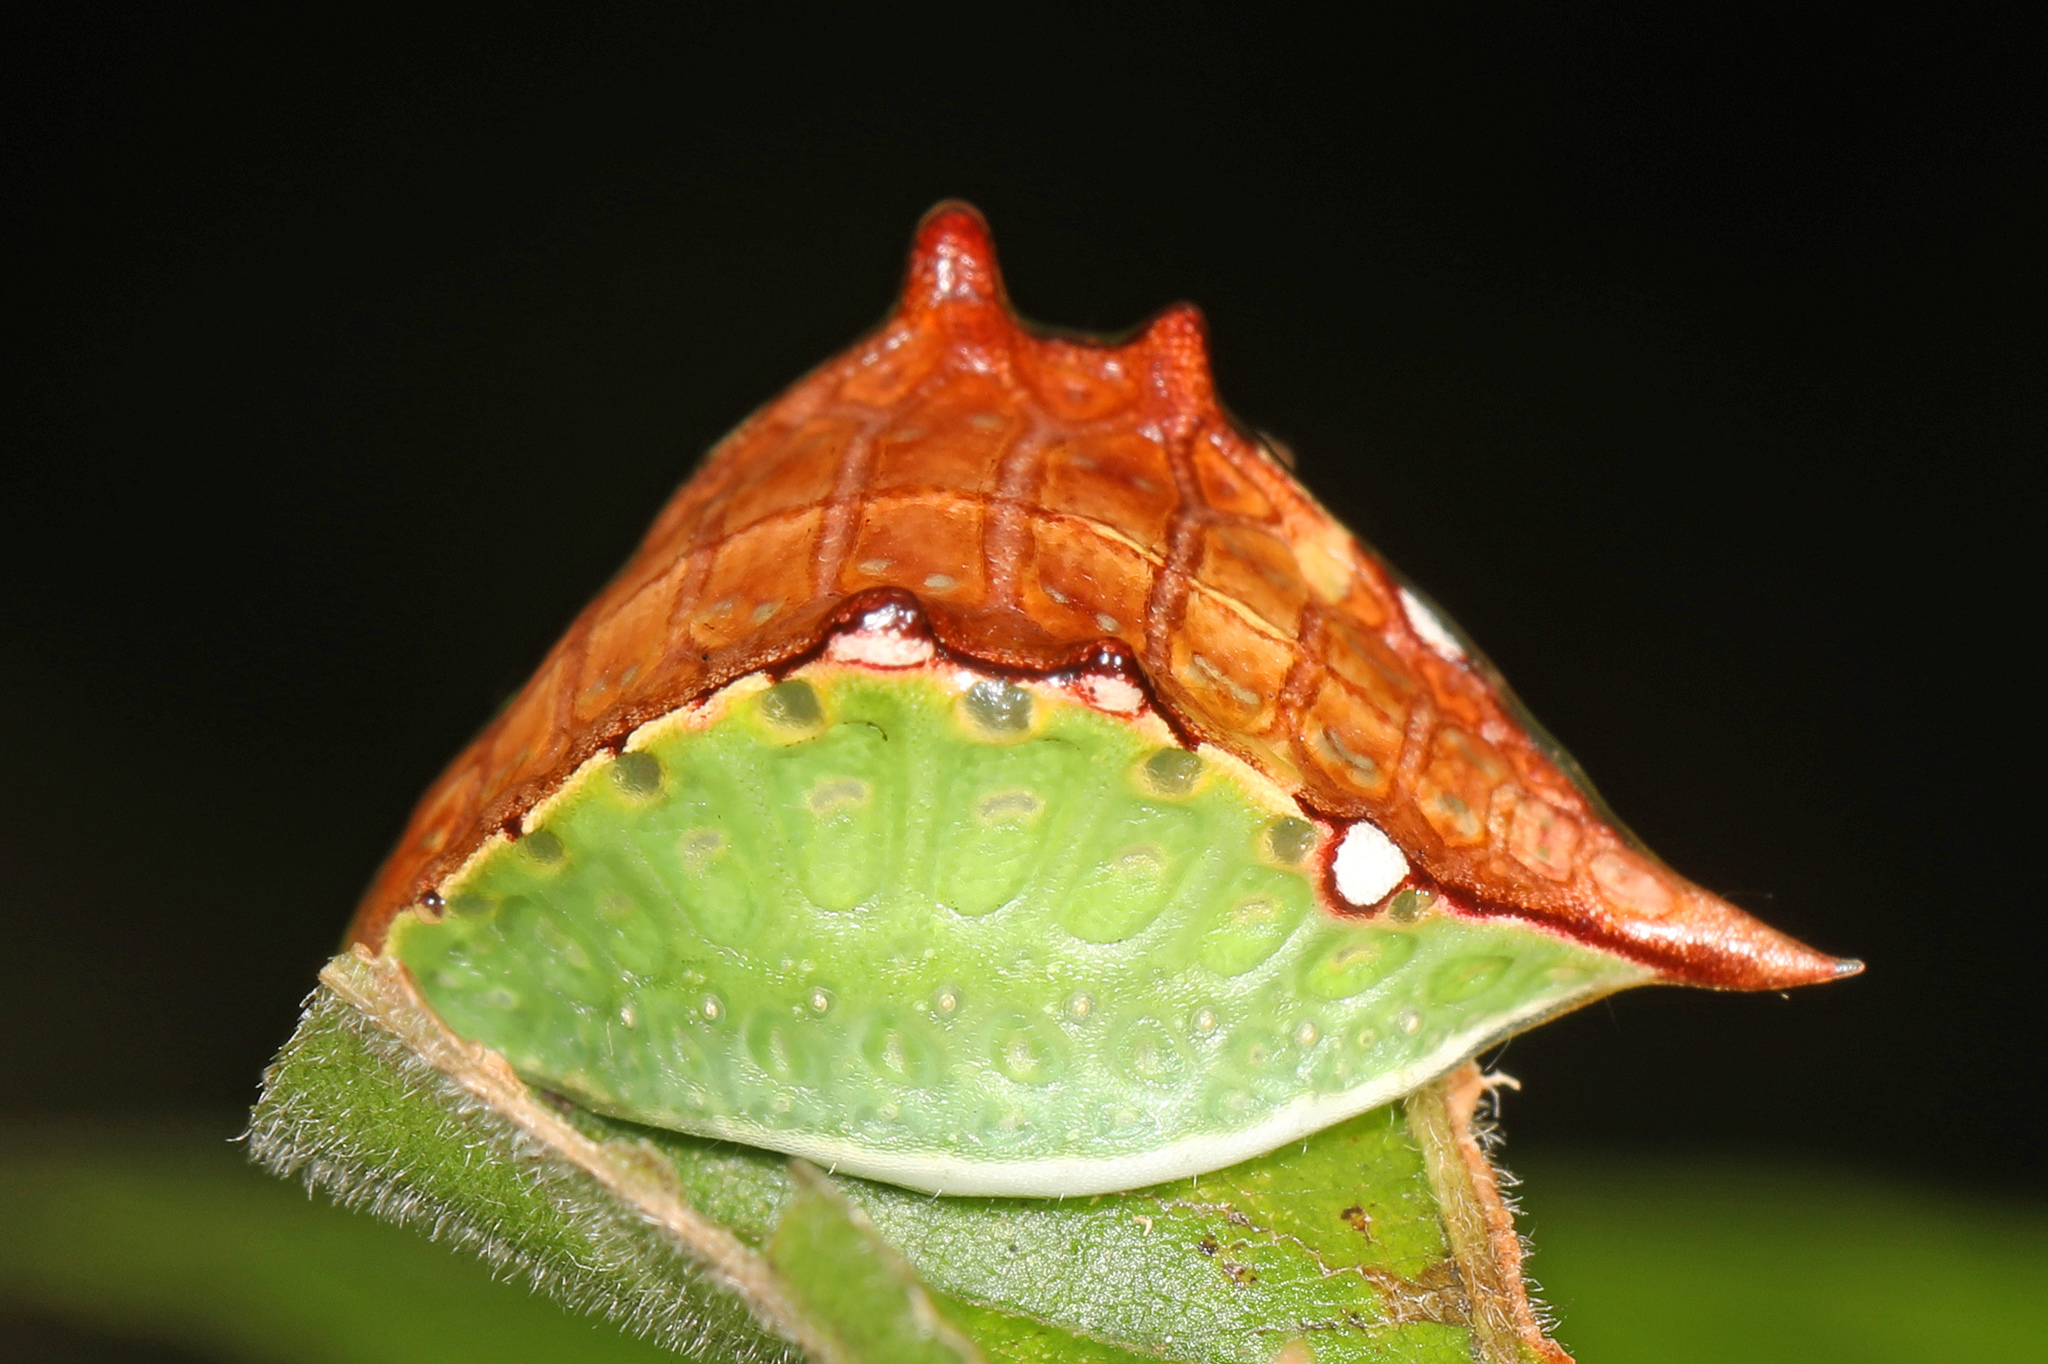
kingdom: Animalia
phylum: Arthropoda
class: Insecta
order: Lepidoptera
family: Limacodidae
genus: Prolimacodes
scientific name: Prolimacodes badia
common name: Skiff moth
